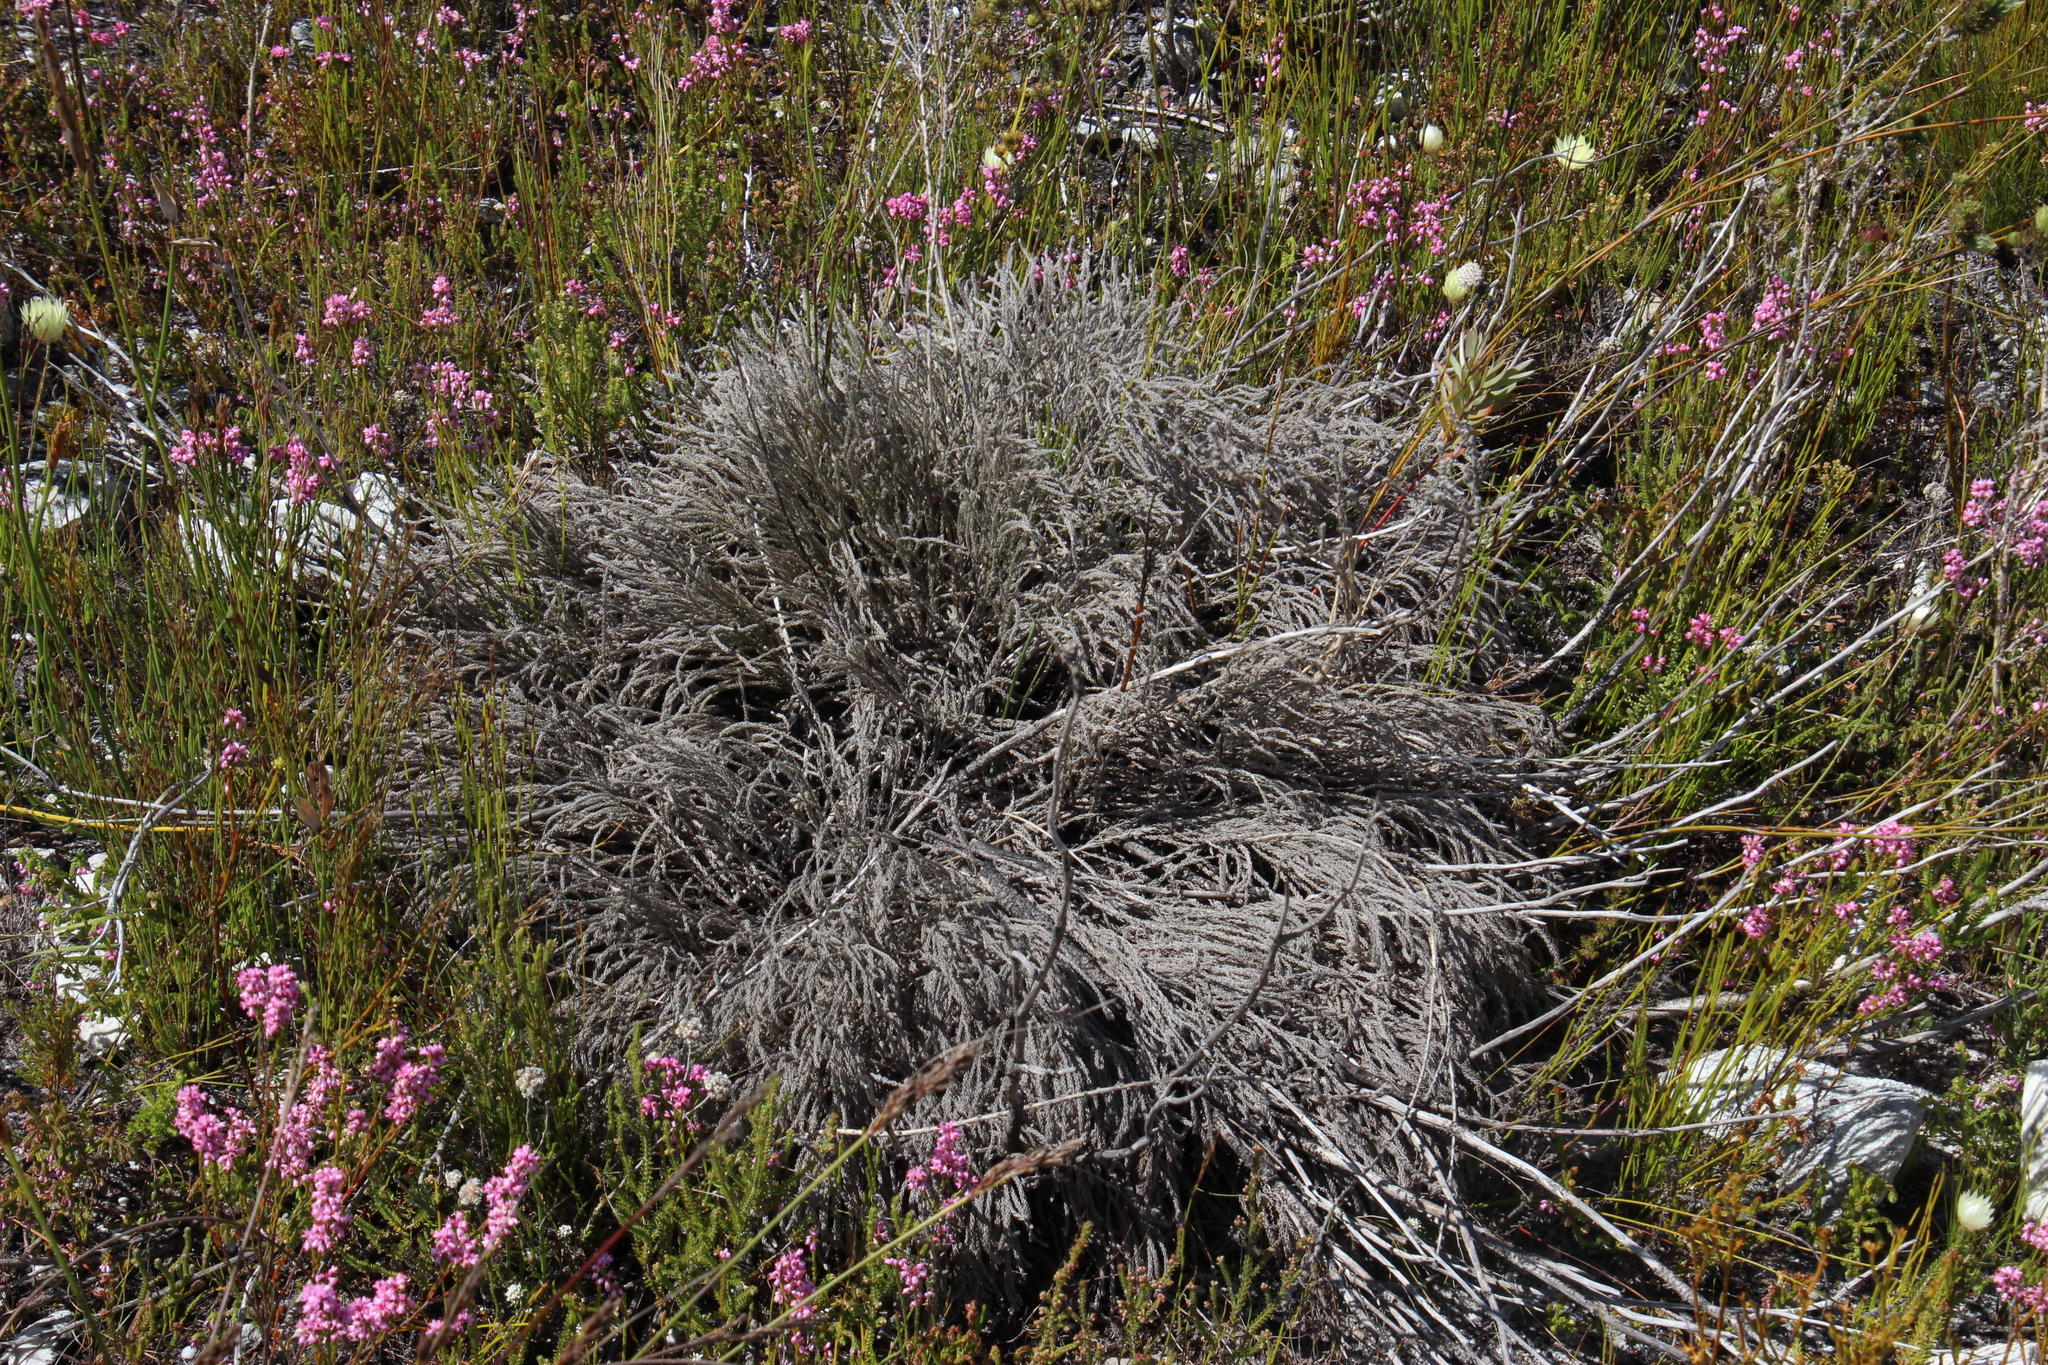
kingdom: Plantae
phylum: Tracheophyta
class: Magnoliopsida
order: Bruniales
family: Bruniaceae
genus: Brunia
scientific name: Brunia paleacea
